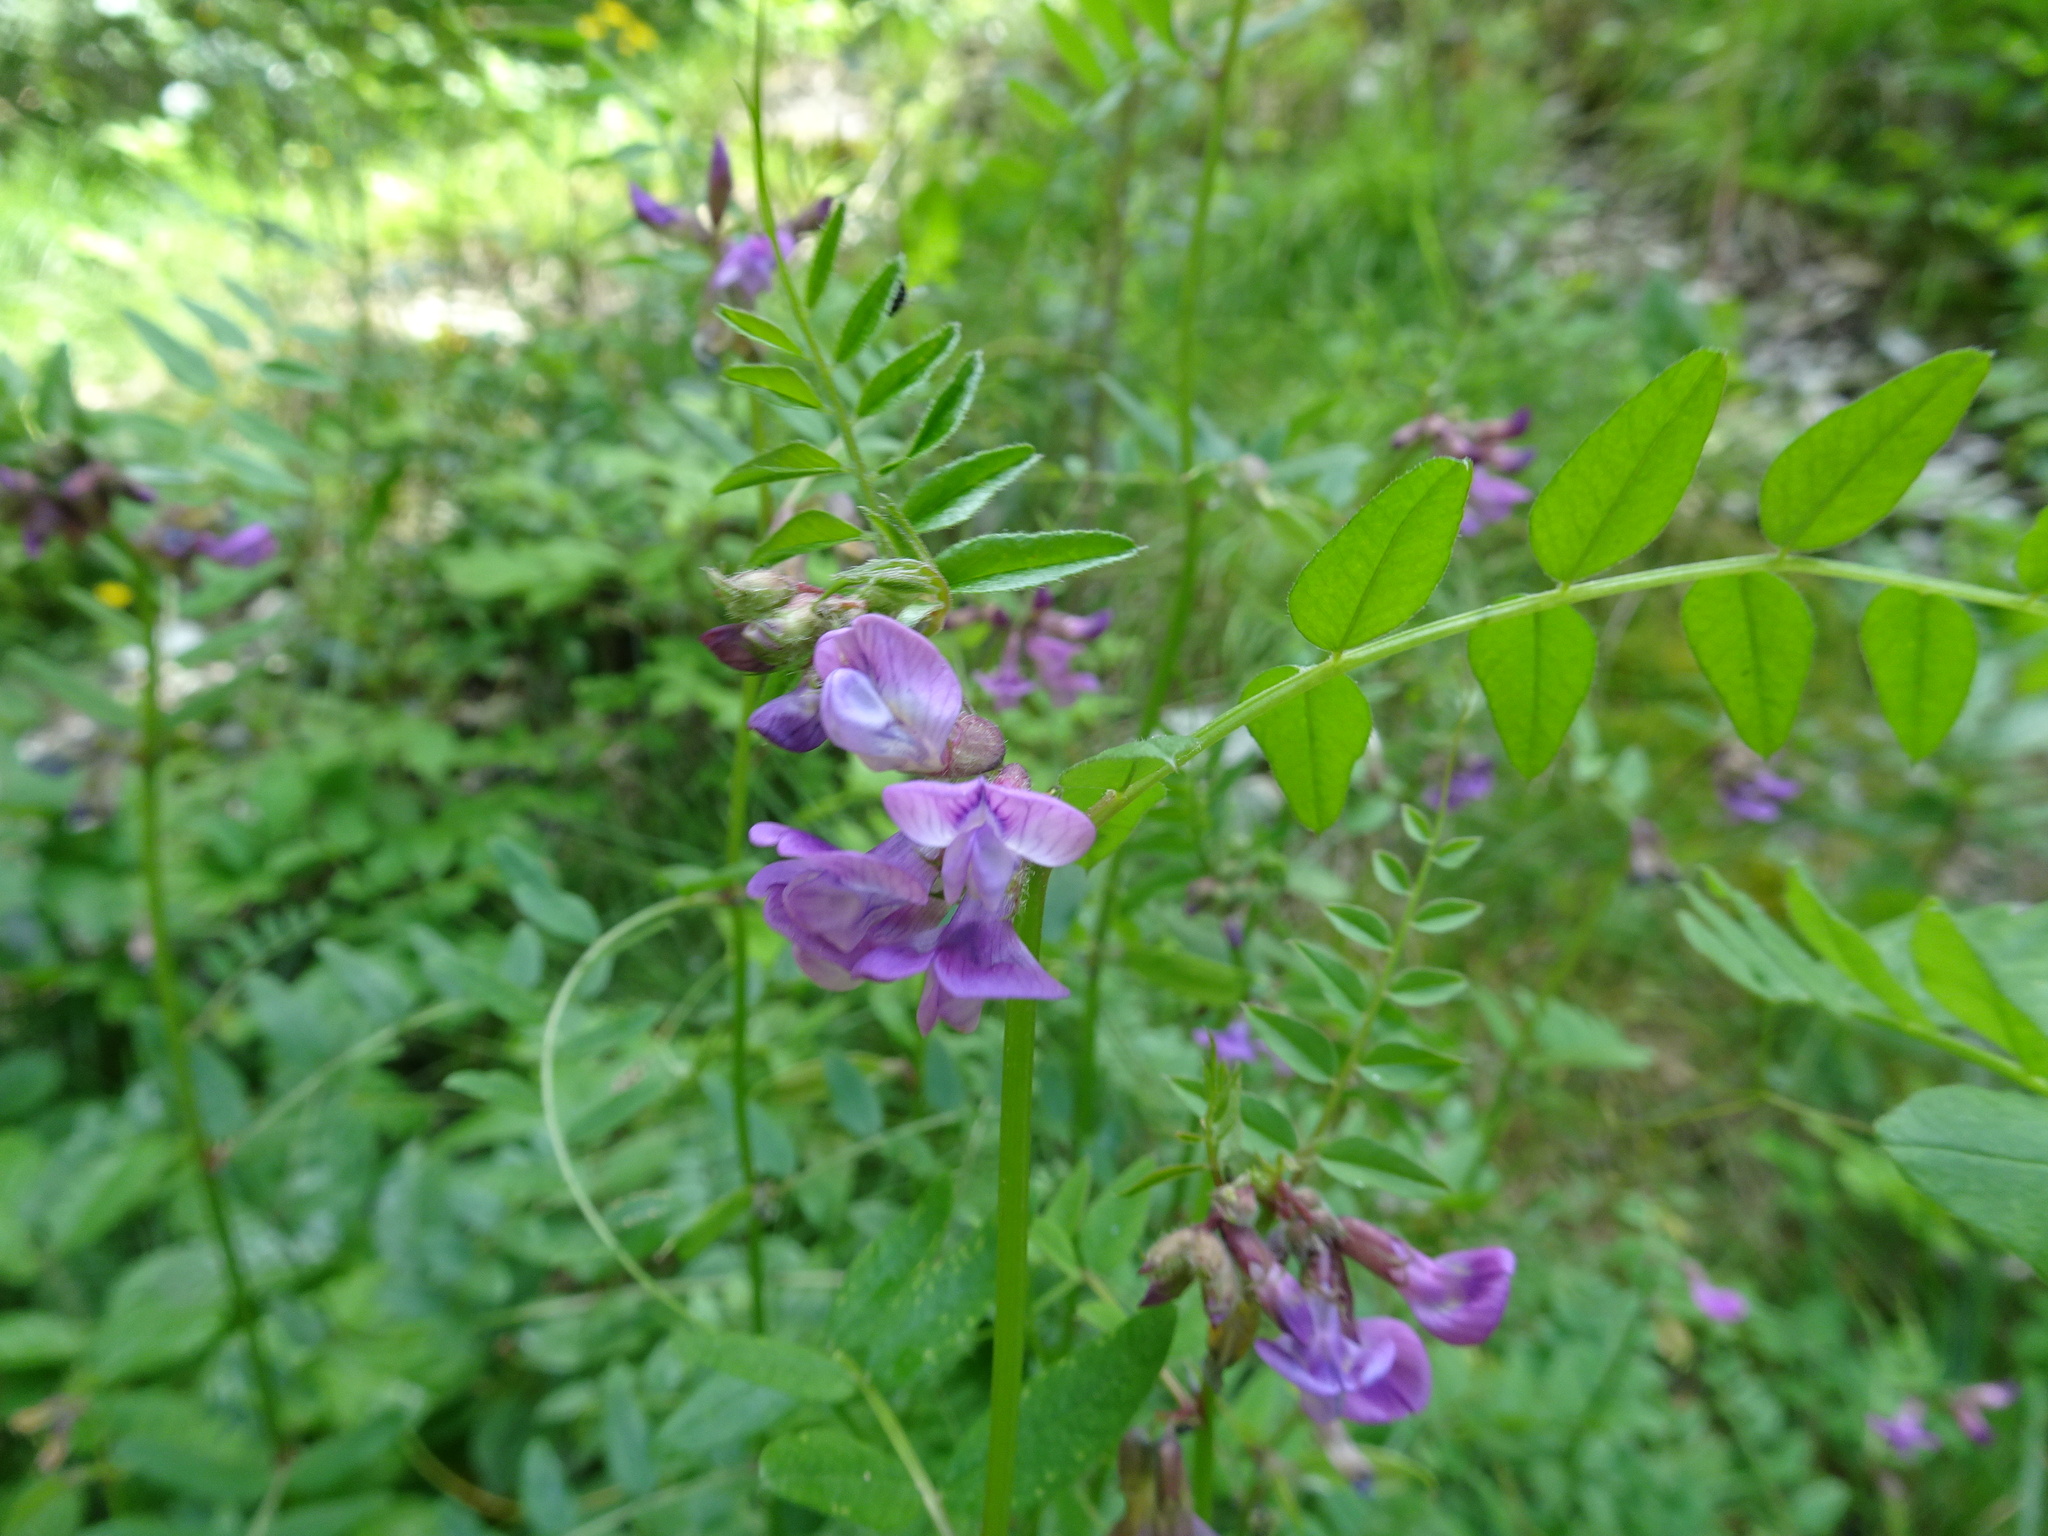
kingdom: Plantae
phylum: Tracheophyta
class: Magnoliopsida
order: Fabales
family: Fabaceae
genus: Vicia
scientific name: Vicia sepium
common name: Bush vetch
